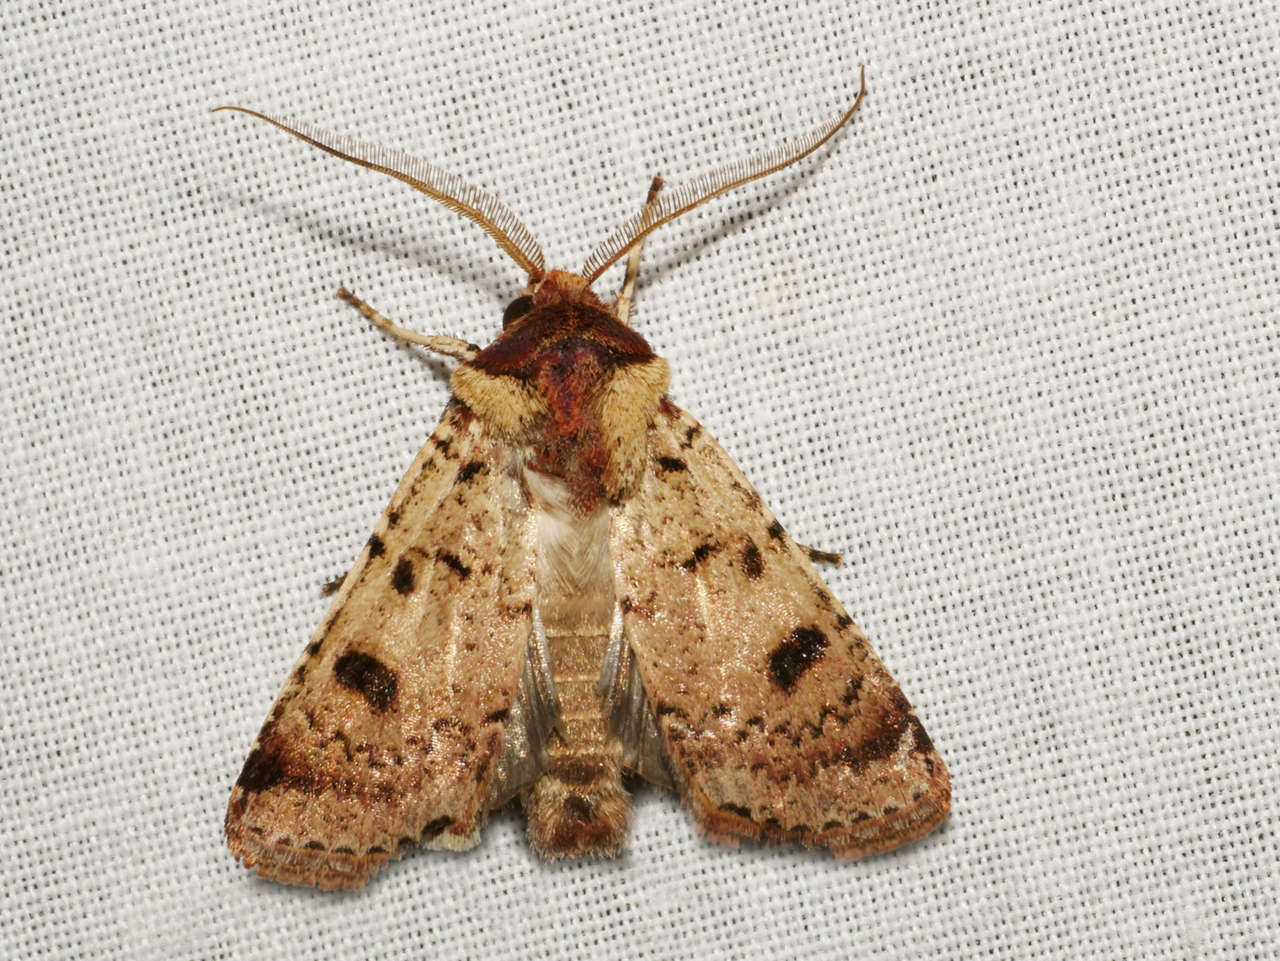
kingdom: Animalia
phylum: Arthropoda
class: Insecta
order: Lepidoptera
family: Noctuidae
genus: Agrotis
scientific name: Agrotis porphyricollis
